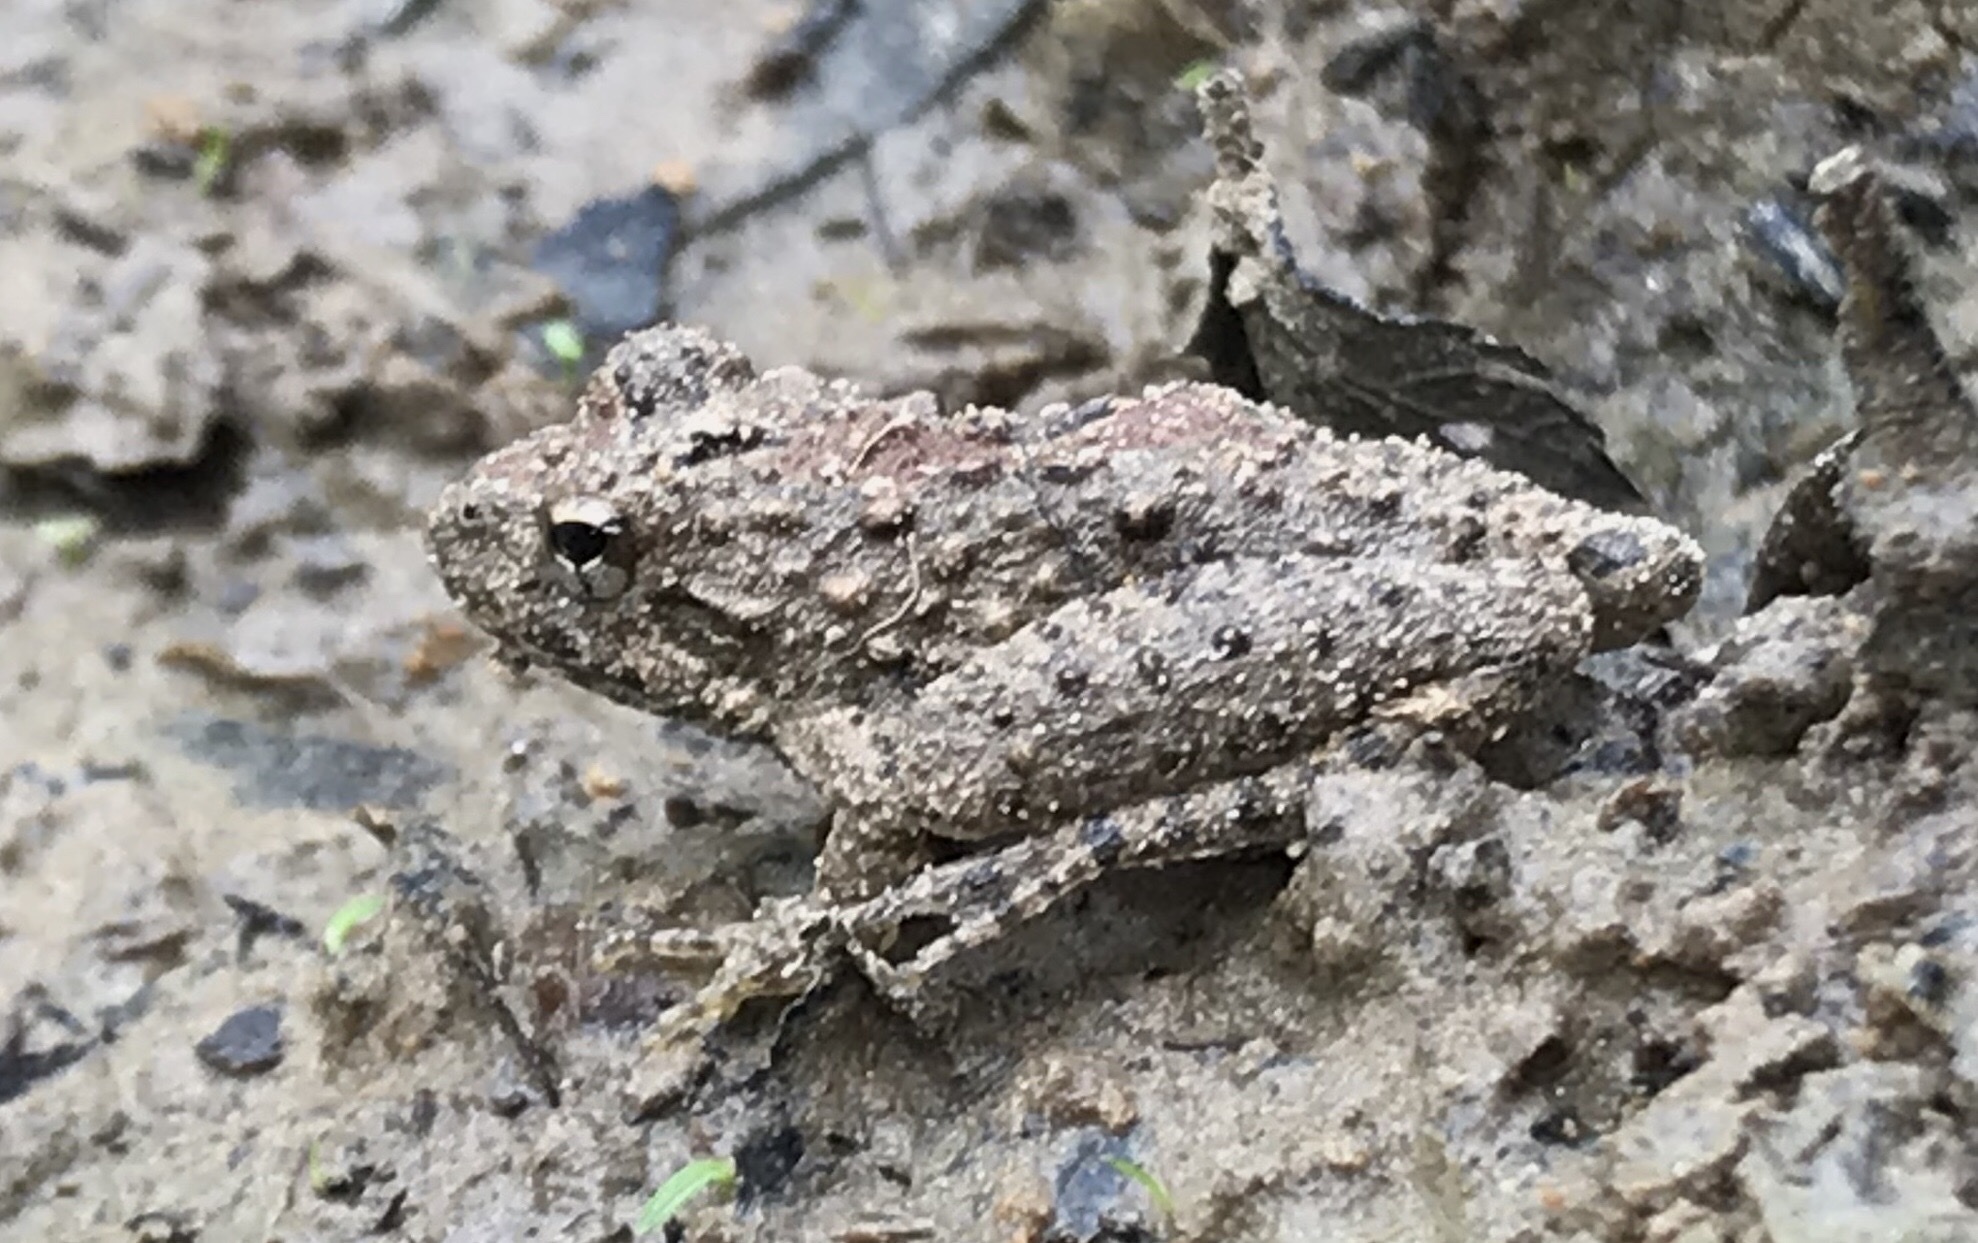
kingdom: Animalia
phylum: Chordata
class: Amphibia
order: Anura
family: Hylidae
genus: Acris
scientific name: Acris blanchardi
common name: Blanchard's cricket frog
